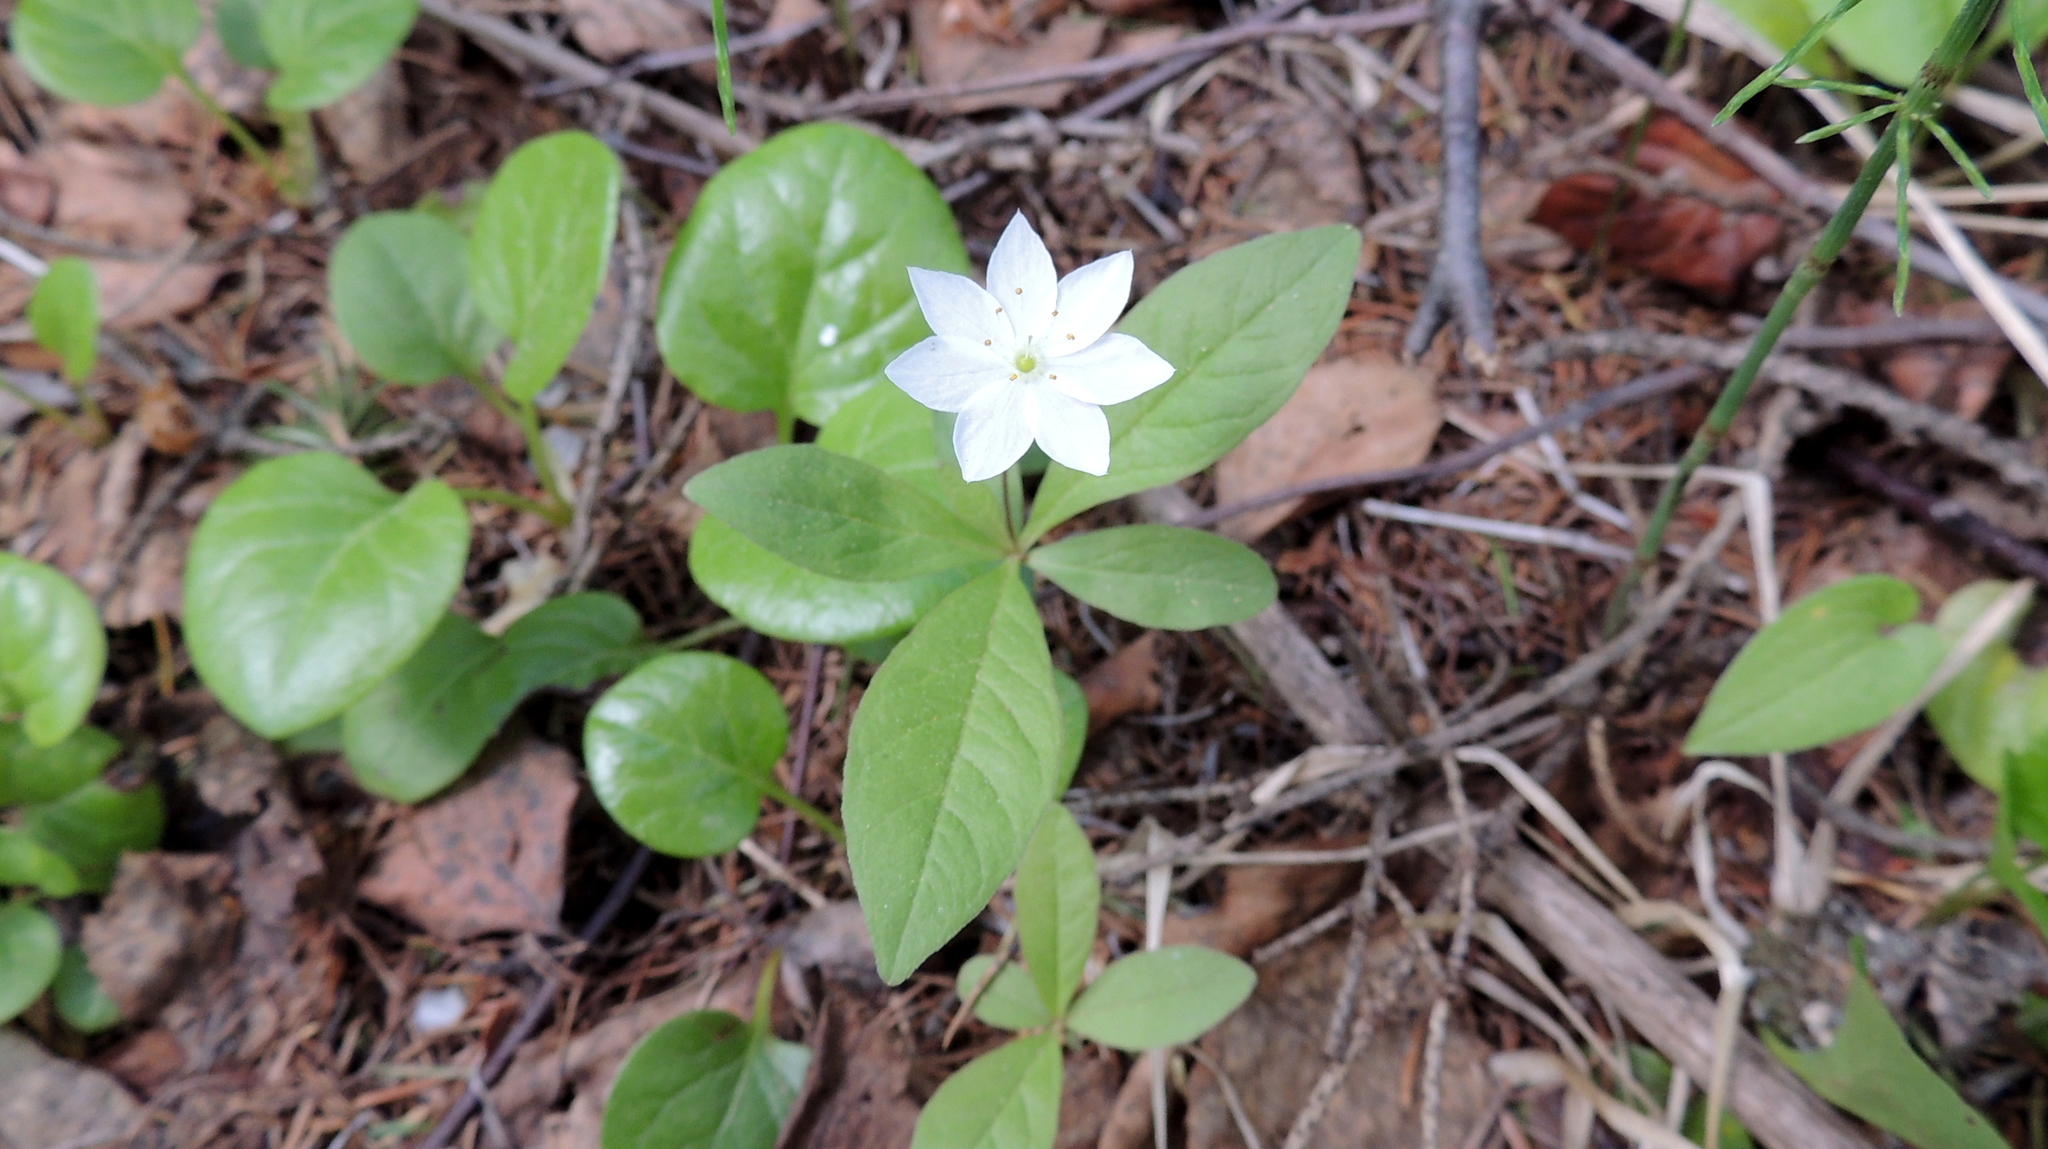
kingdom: Plantae
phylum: Tracheophyta
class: Magnoliopsida
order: Ericales
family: Primulaceae
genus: Lysimachia
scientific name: Lysimachia europaea
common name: Arctic starflower
